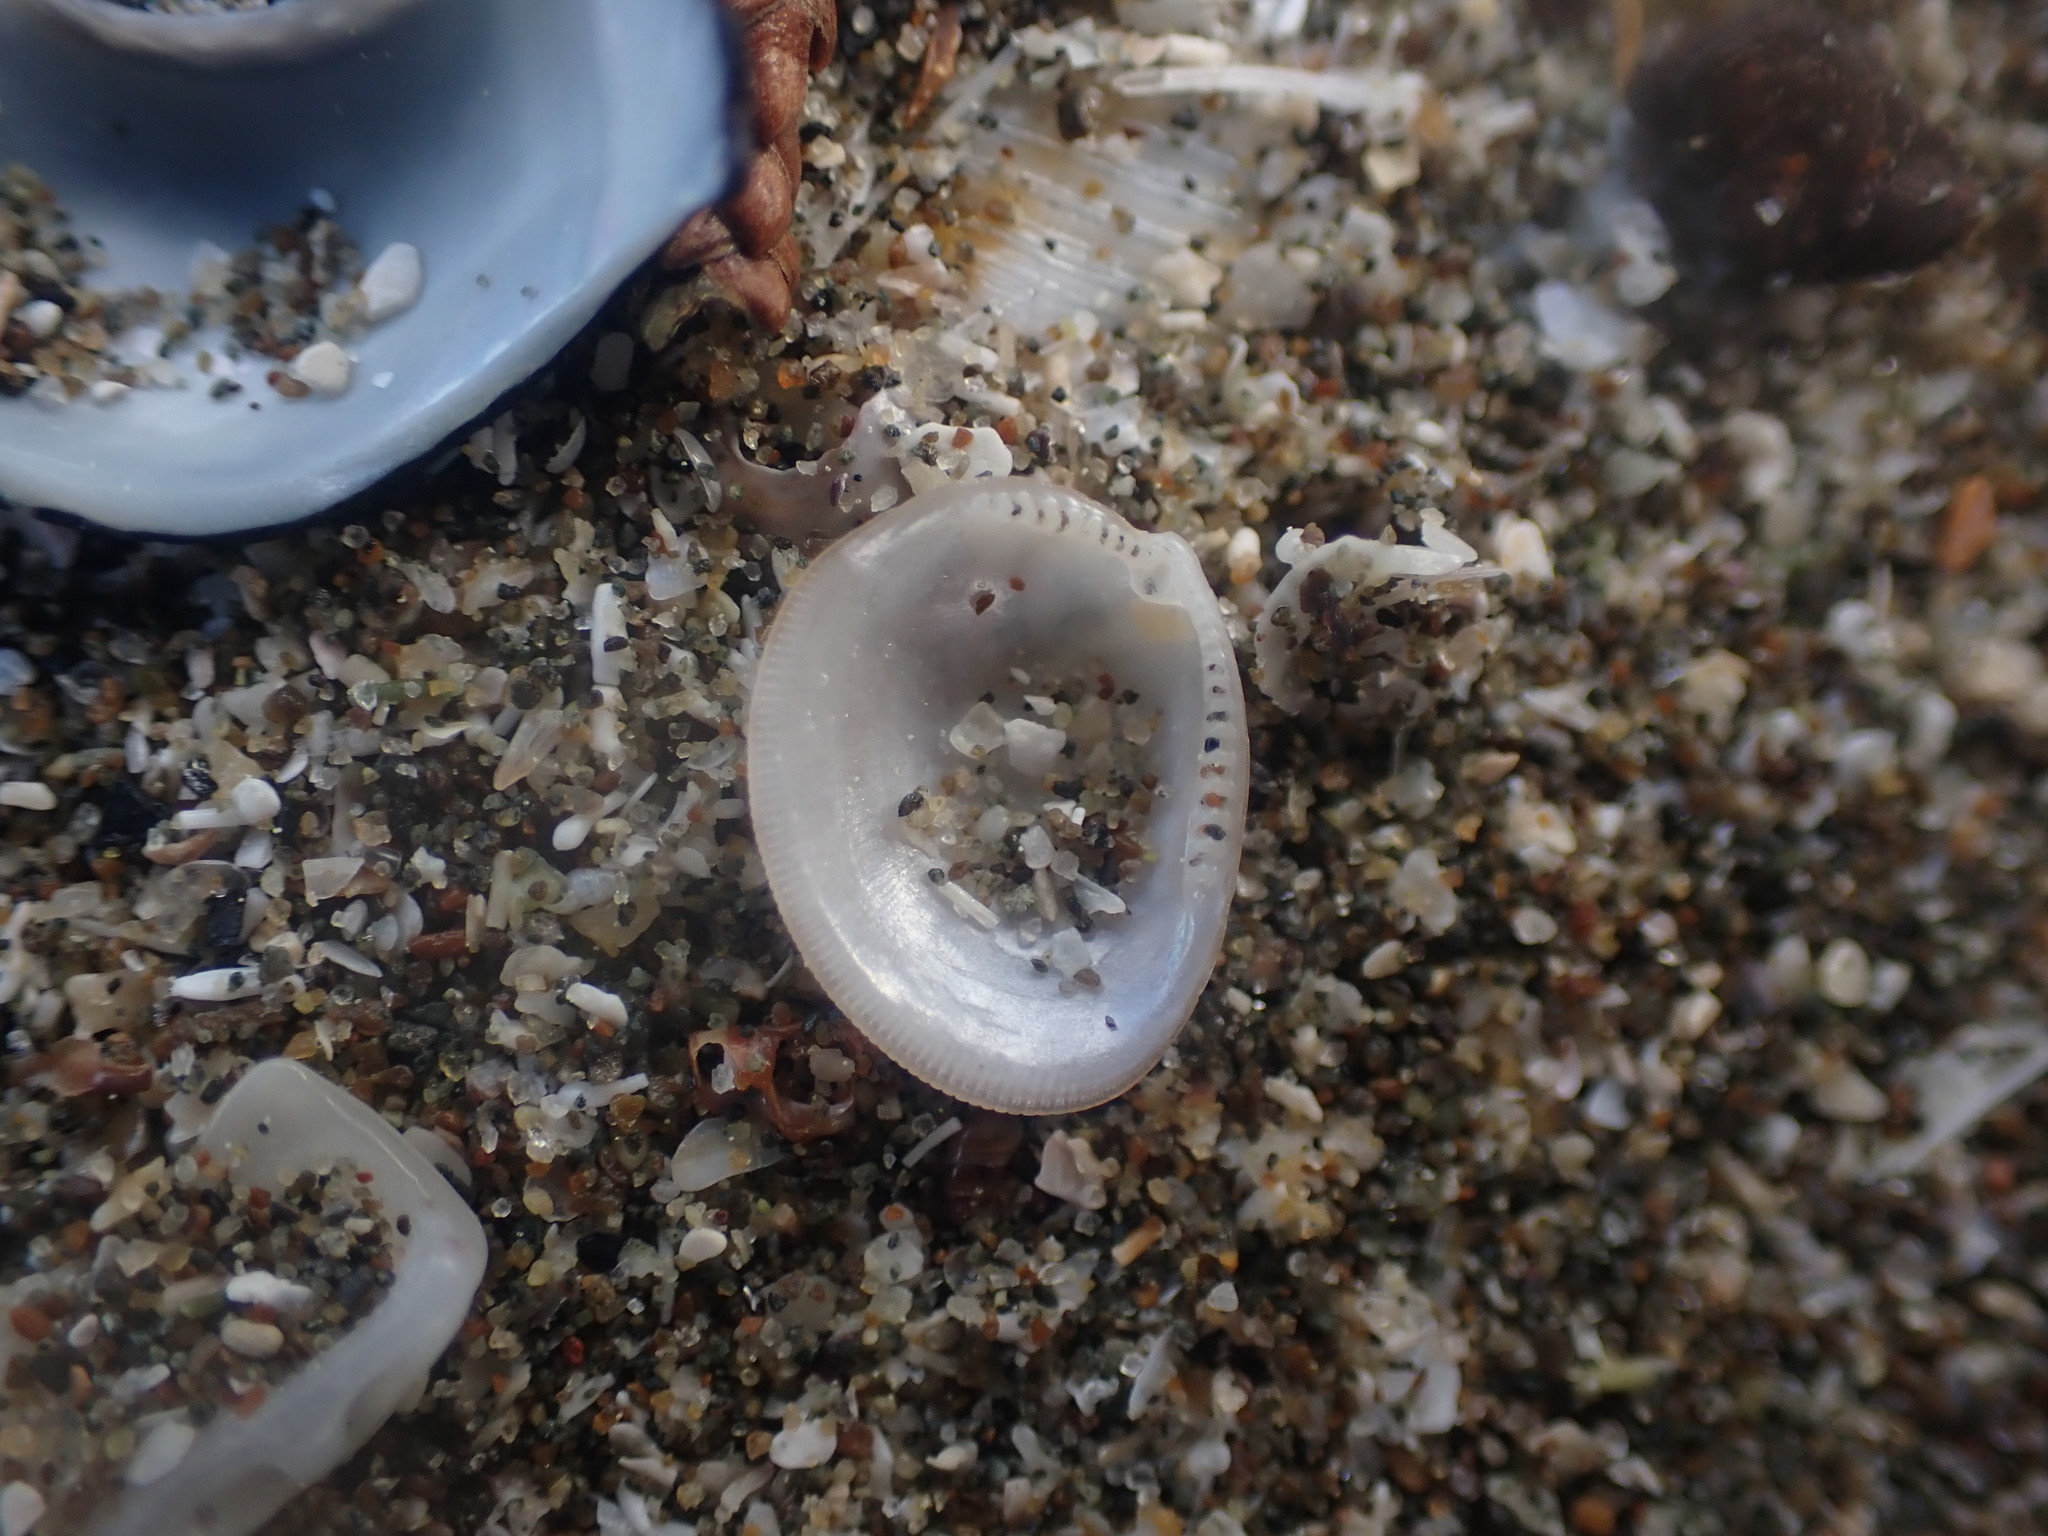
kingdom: Animalia
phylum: Mollusca
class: Bivalvia
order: Nuculida
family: Nuculidae
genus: Linucula
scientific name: Linucula hartvigiana
